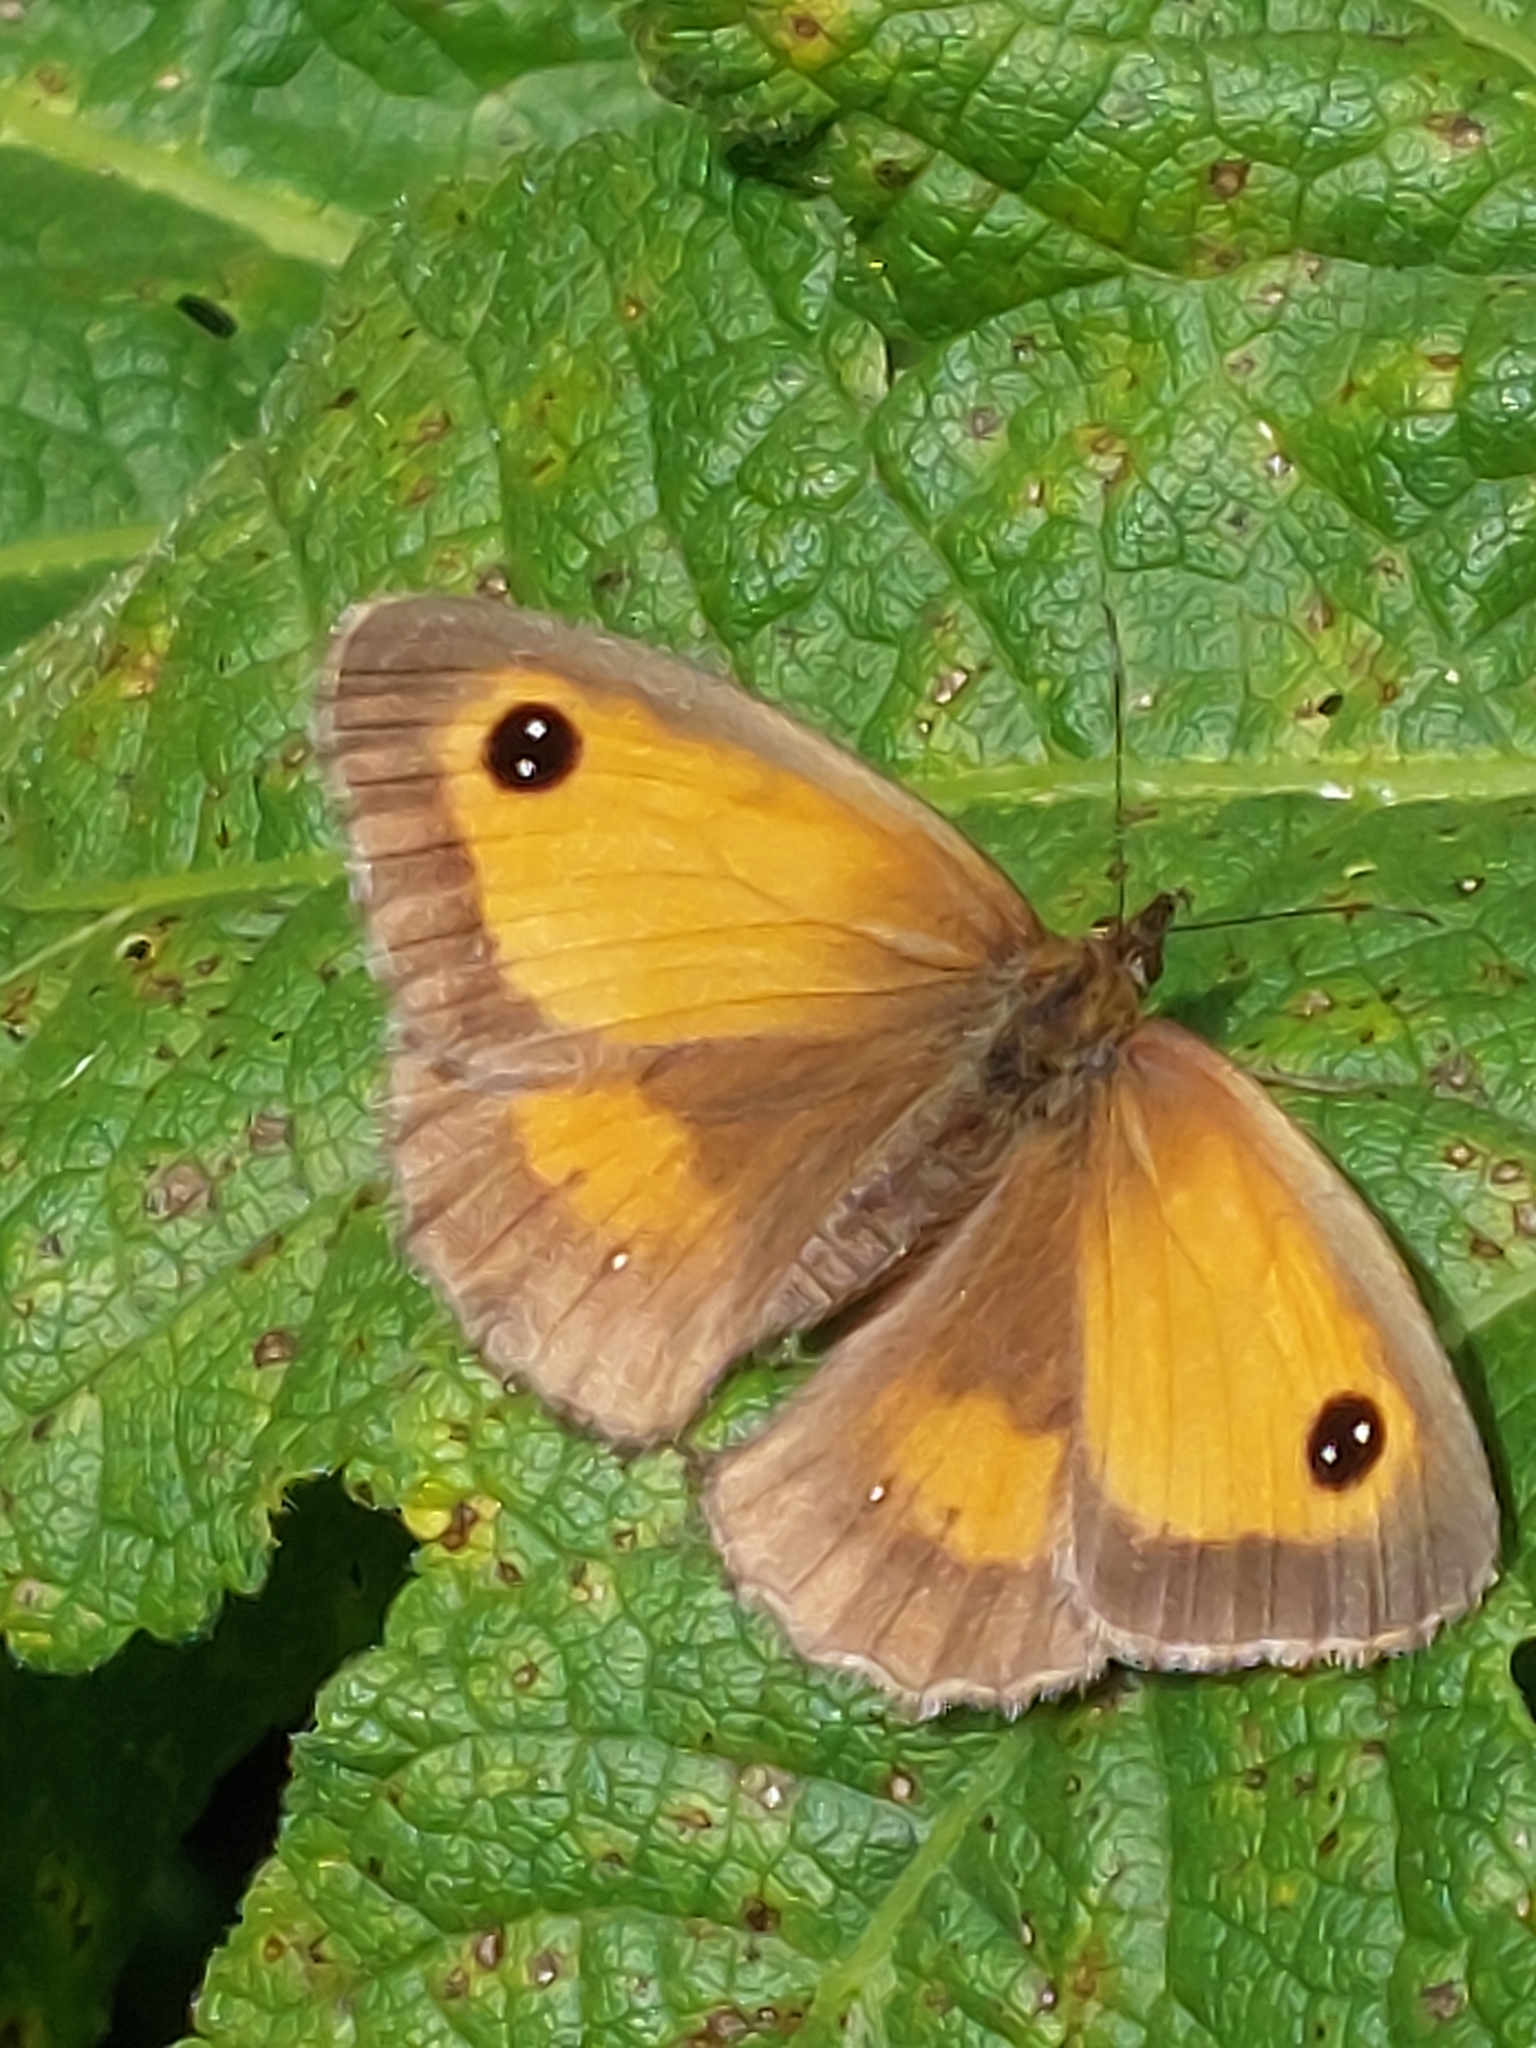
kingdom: Animalia
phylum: Arthropoda
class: Insecta
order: Lepidoptera
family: Nymphalidae
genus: Pyronia
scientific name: Pyronia tithonus
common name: Gatekeeper
